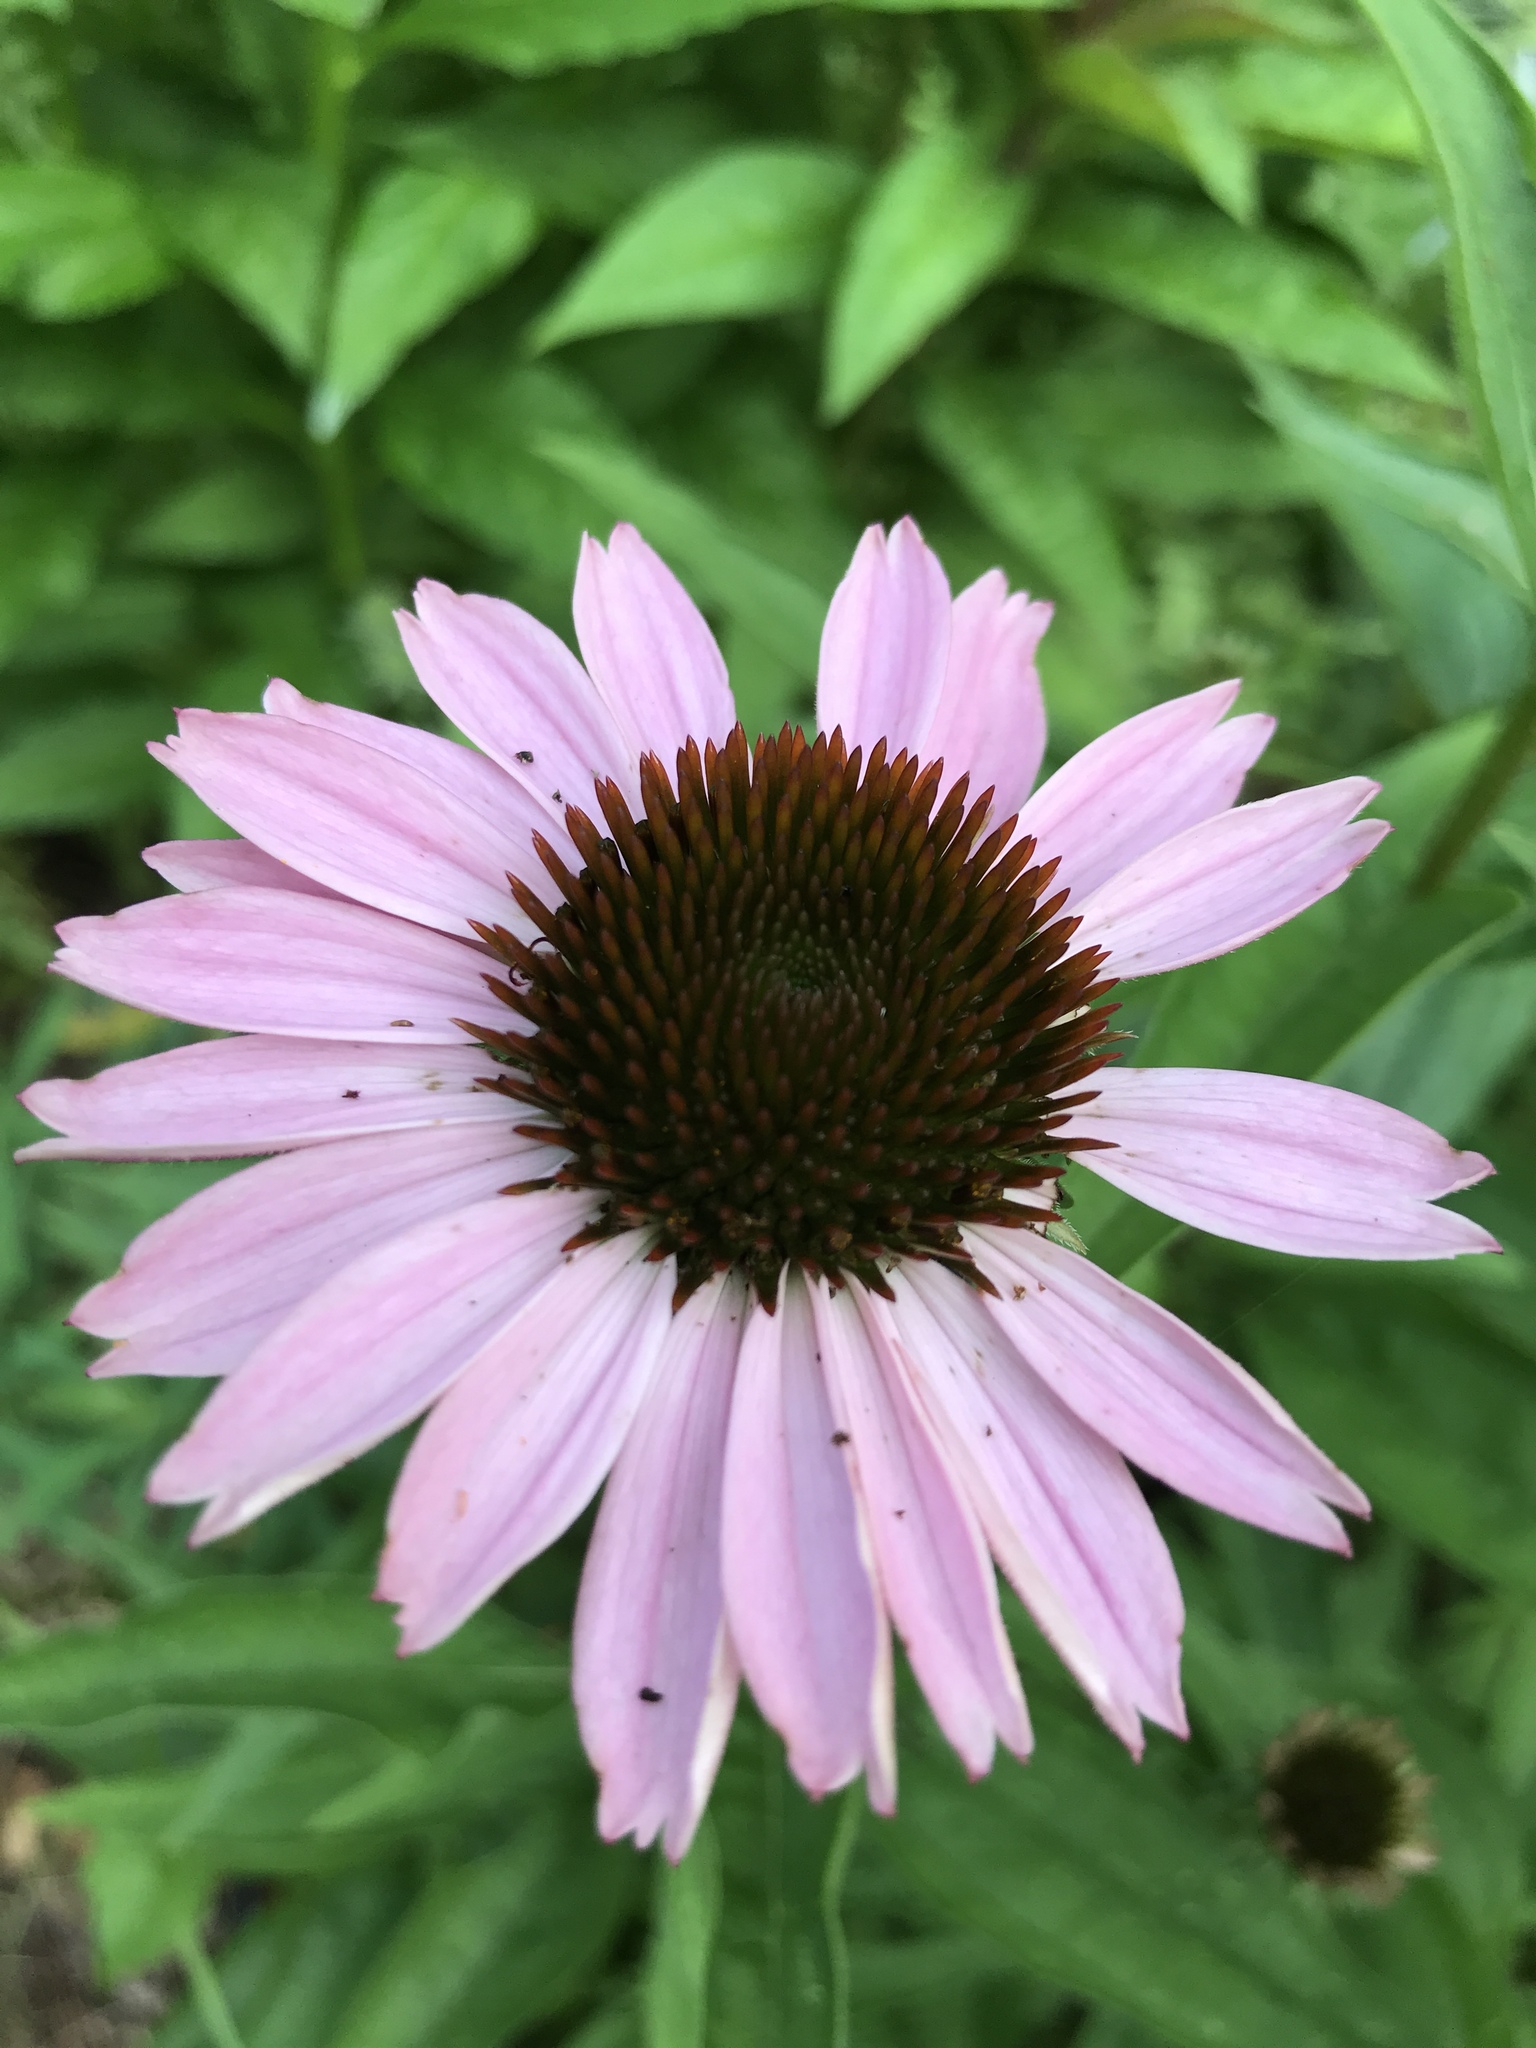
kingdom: Plantae
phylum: Tracheophyta
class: Magnoliopsida
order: Asterales
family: Asteraceae
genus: Echinacea
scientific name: Echinacea purpurea
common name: Broad-leaved purple coneflower
